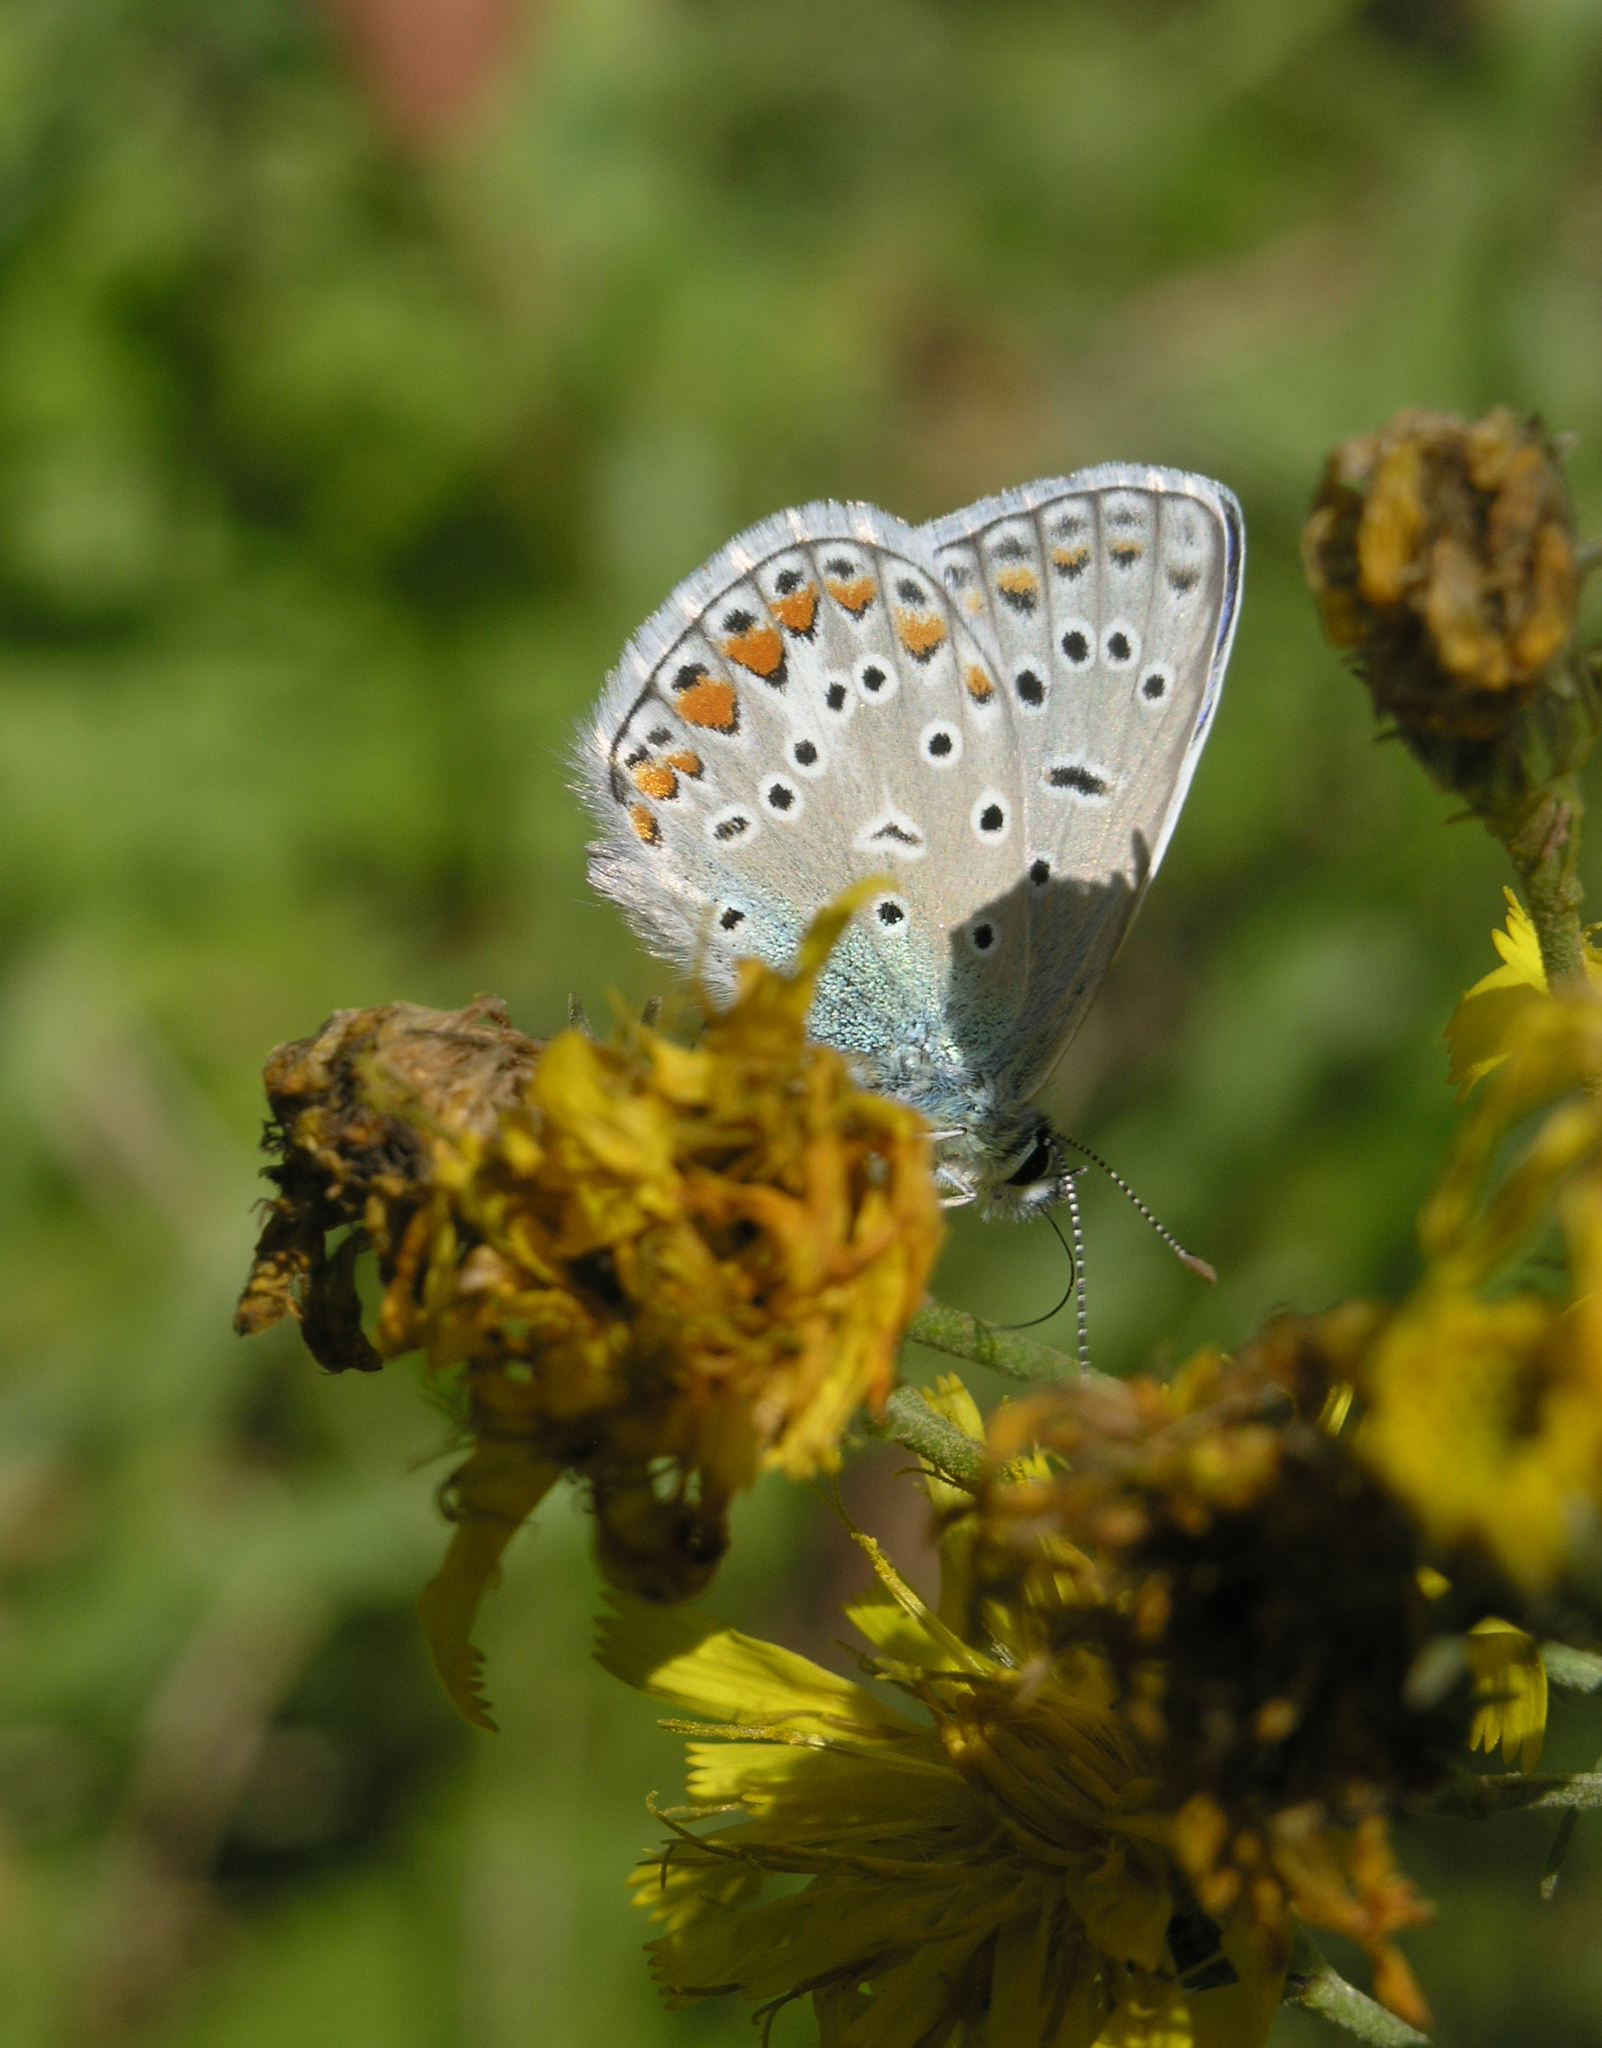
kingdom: Animalia
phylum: Arthropoda
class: Insecta
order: Lepidoptera
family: Lycaenidae
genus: Polyommatus
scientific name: Polyommatus icarus
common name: Common blue
